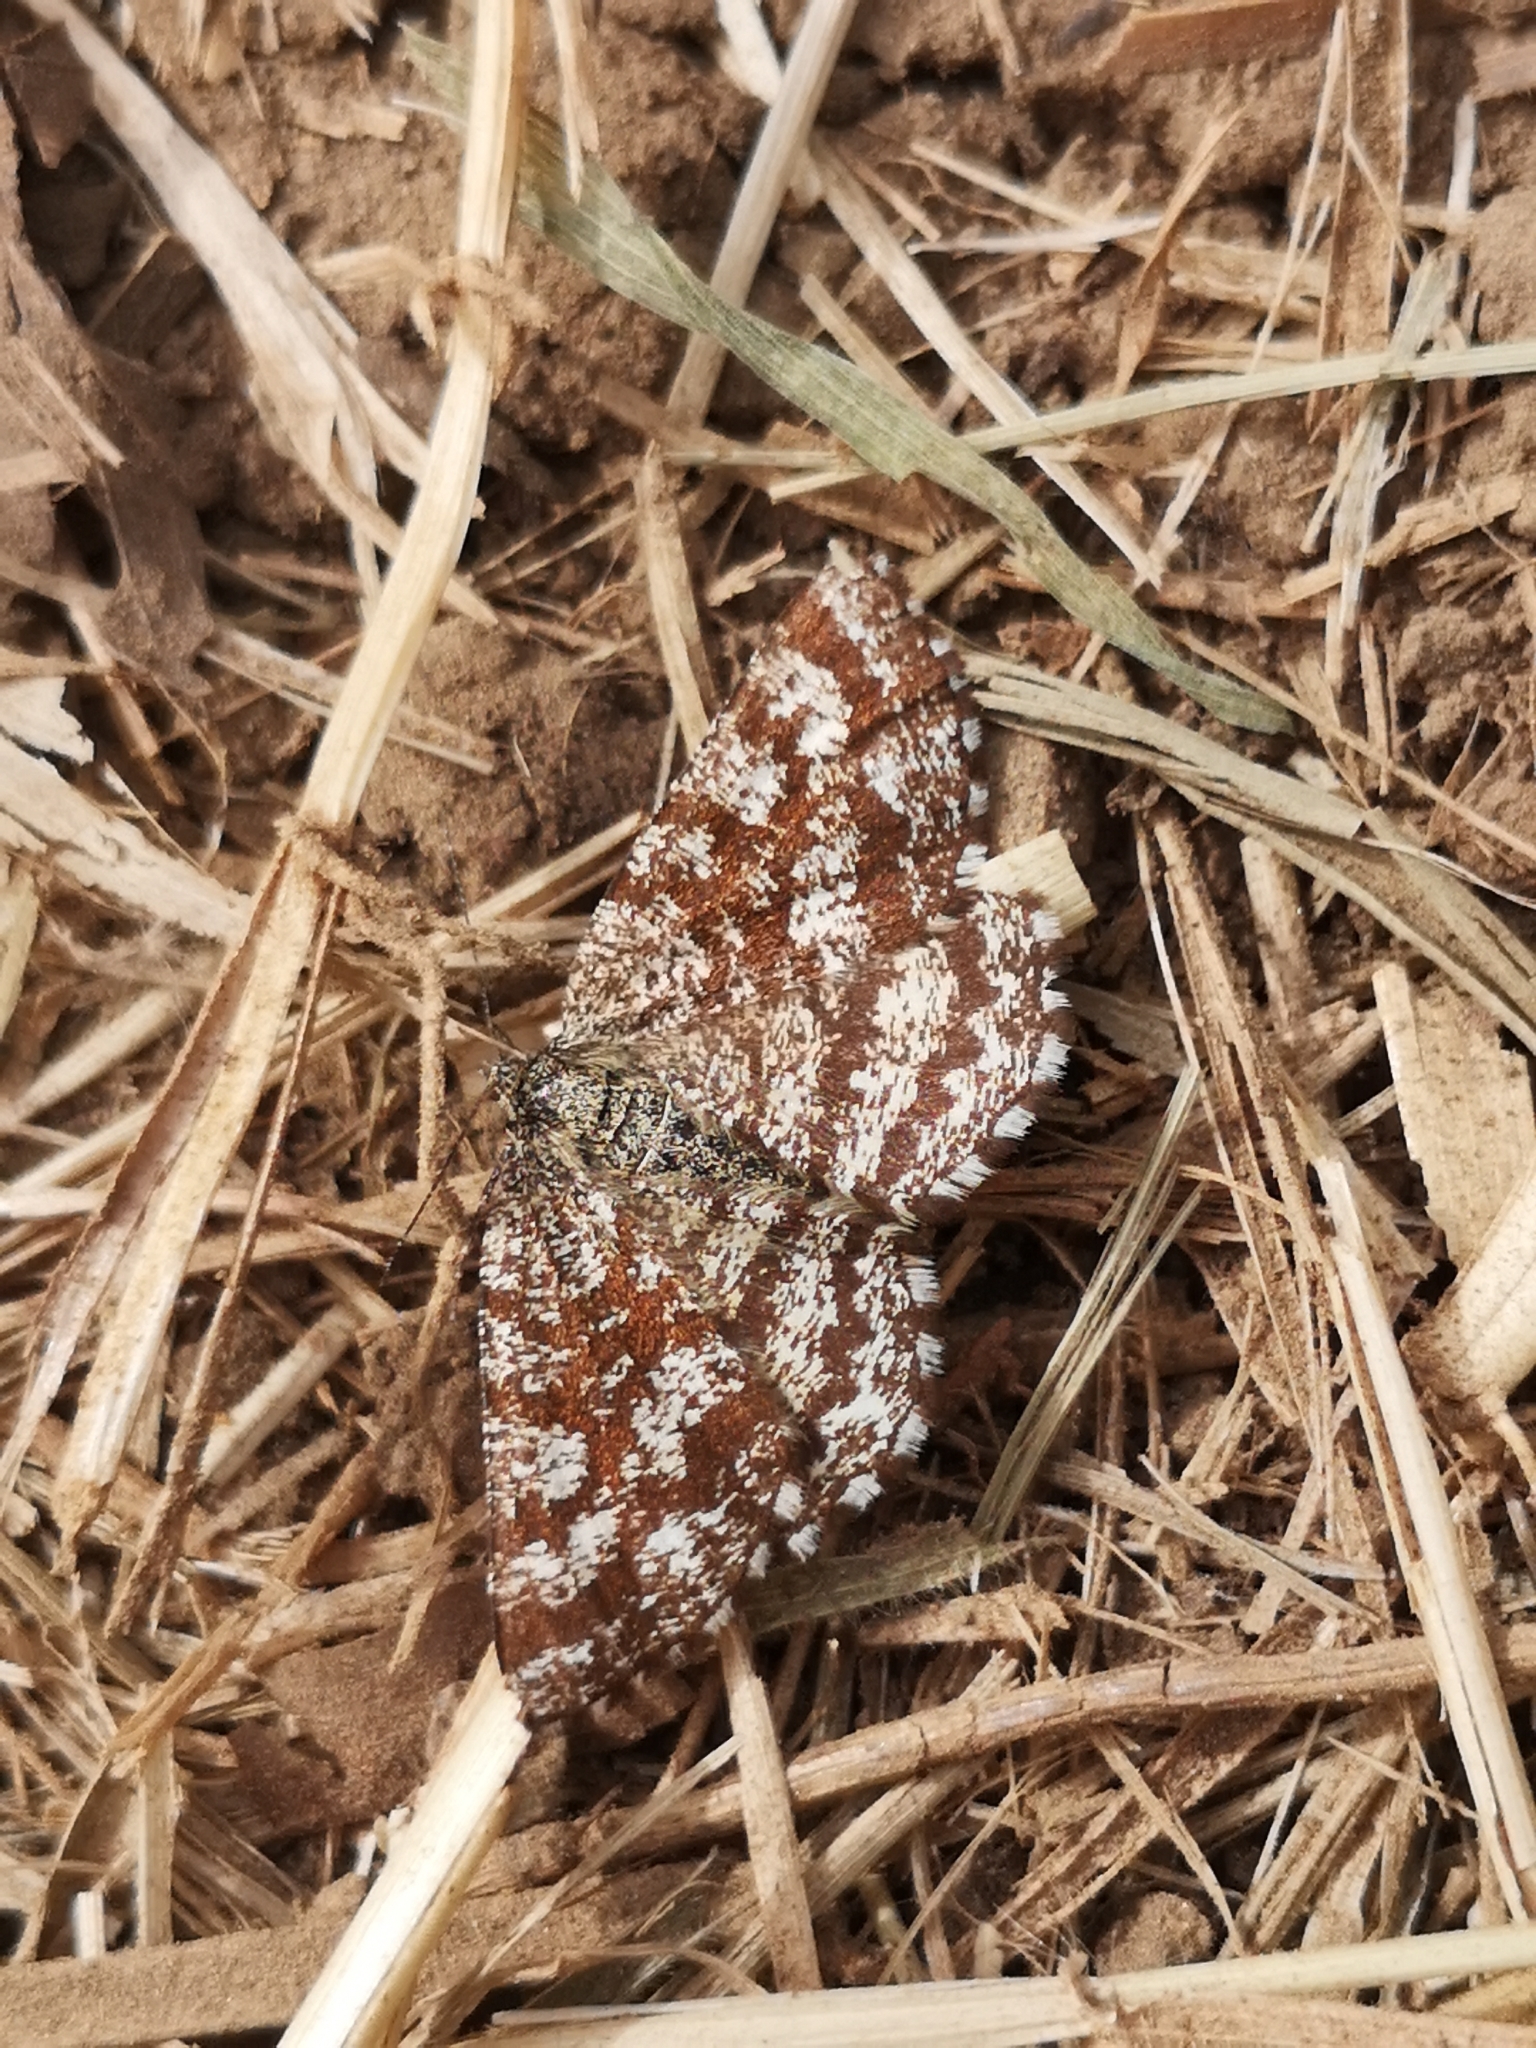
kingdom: Animalia
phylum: Arthropoda
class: Insecta
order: Lepidoptera
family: Geometridae
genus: Ematurga
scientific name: Ematurga atomaria
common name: Common heath
